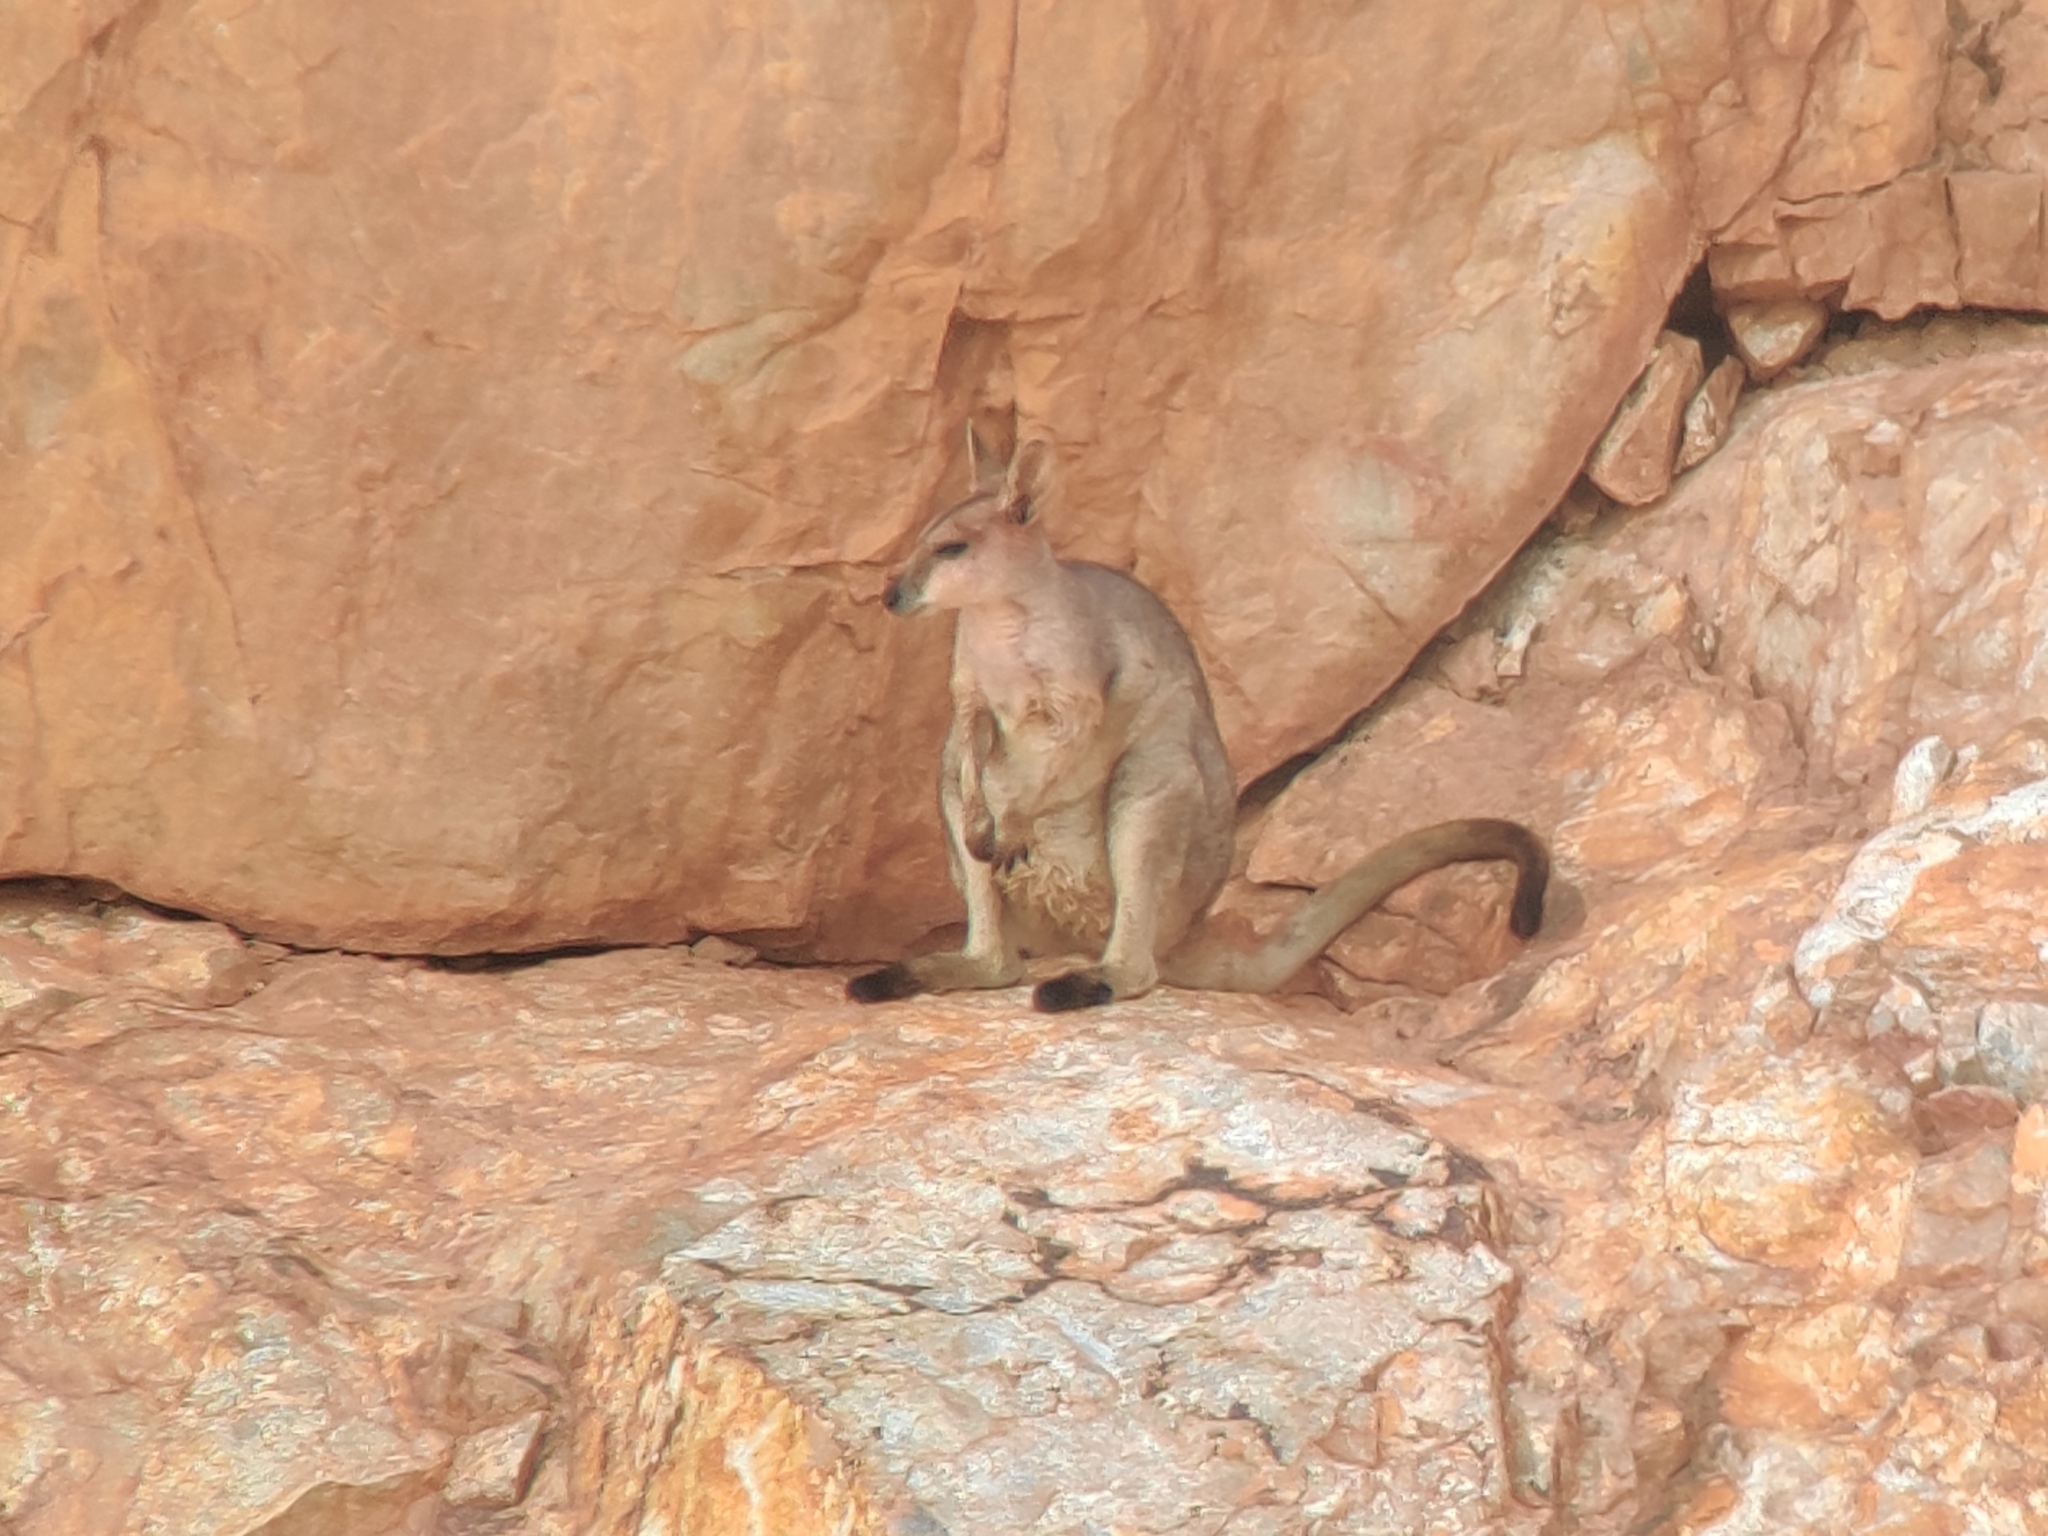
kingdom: Animalia
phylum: Chordata
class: Mammalia
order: Diprotodontia
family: Macropodidae
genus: Petrogale
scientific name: Petrogale purpureicollis
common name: Purple-necked rock-wallaby
